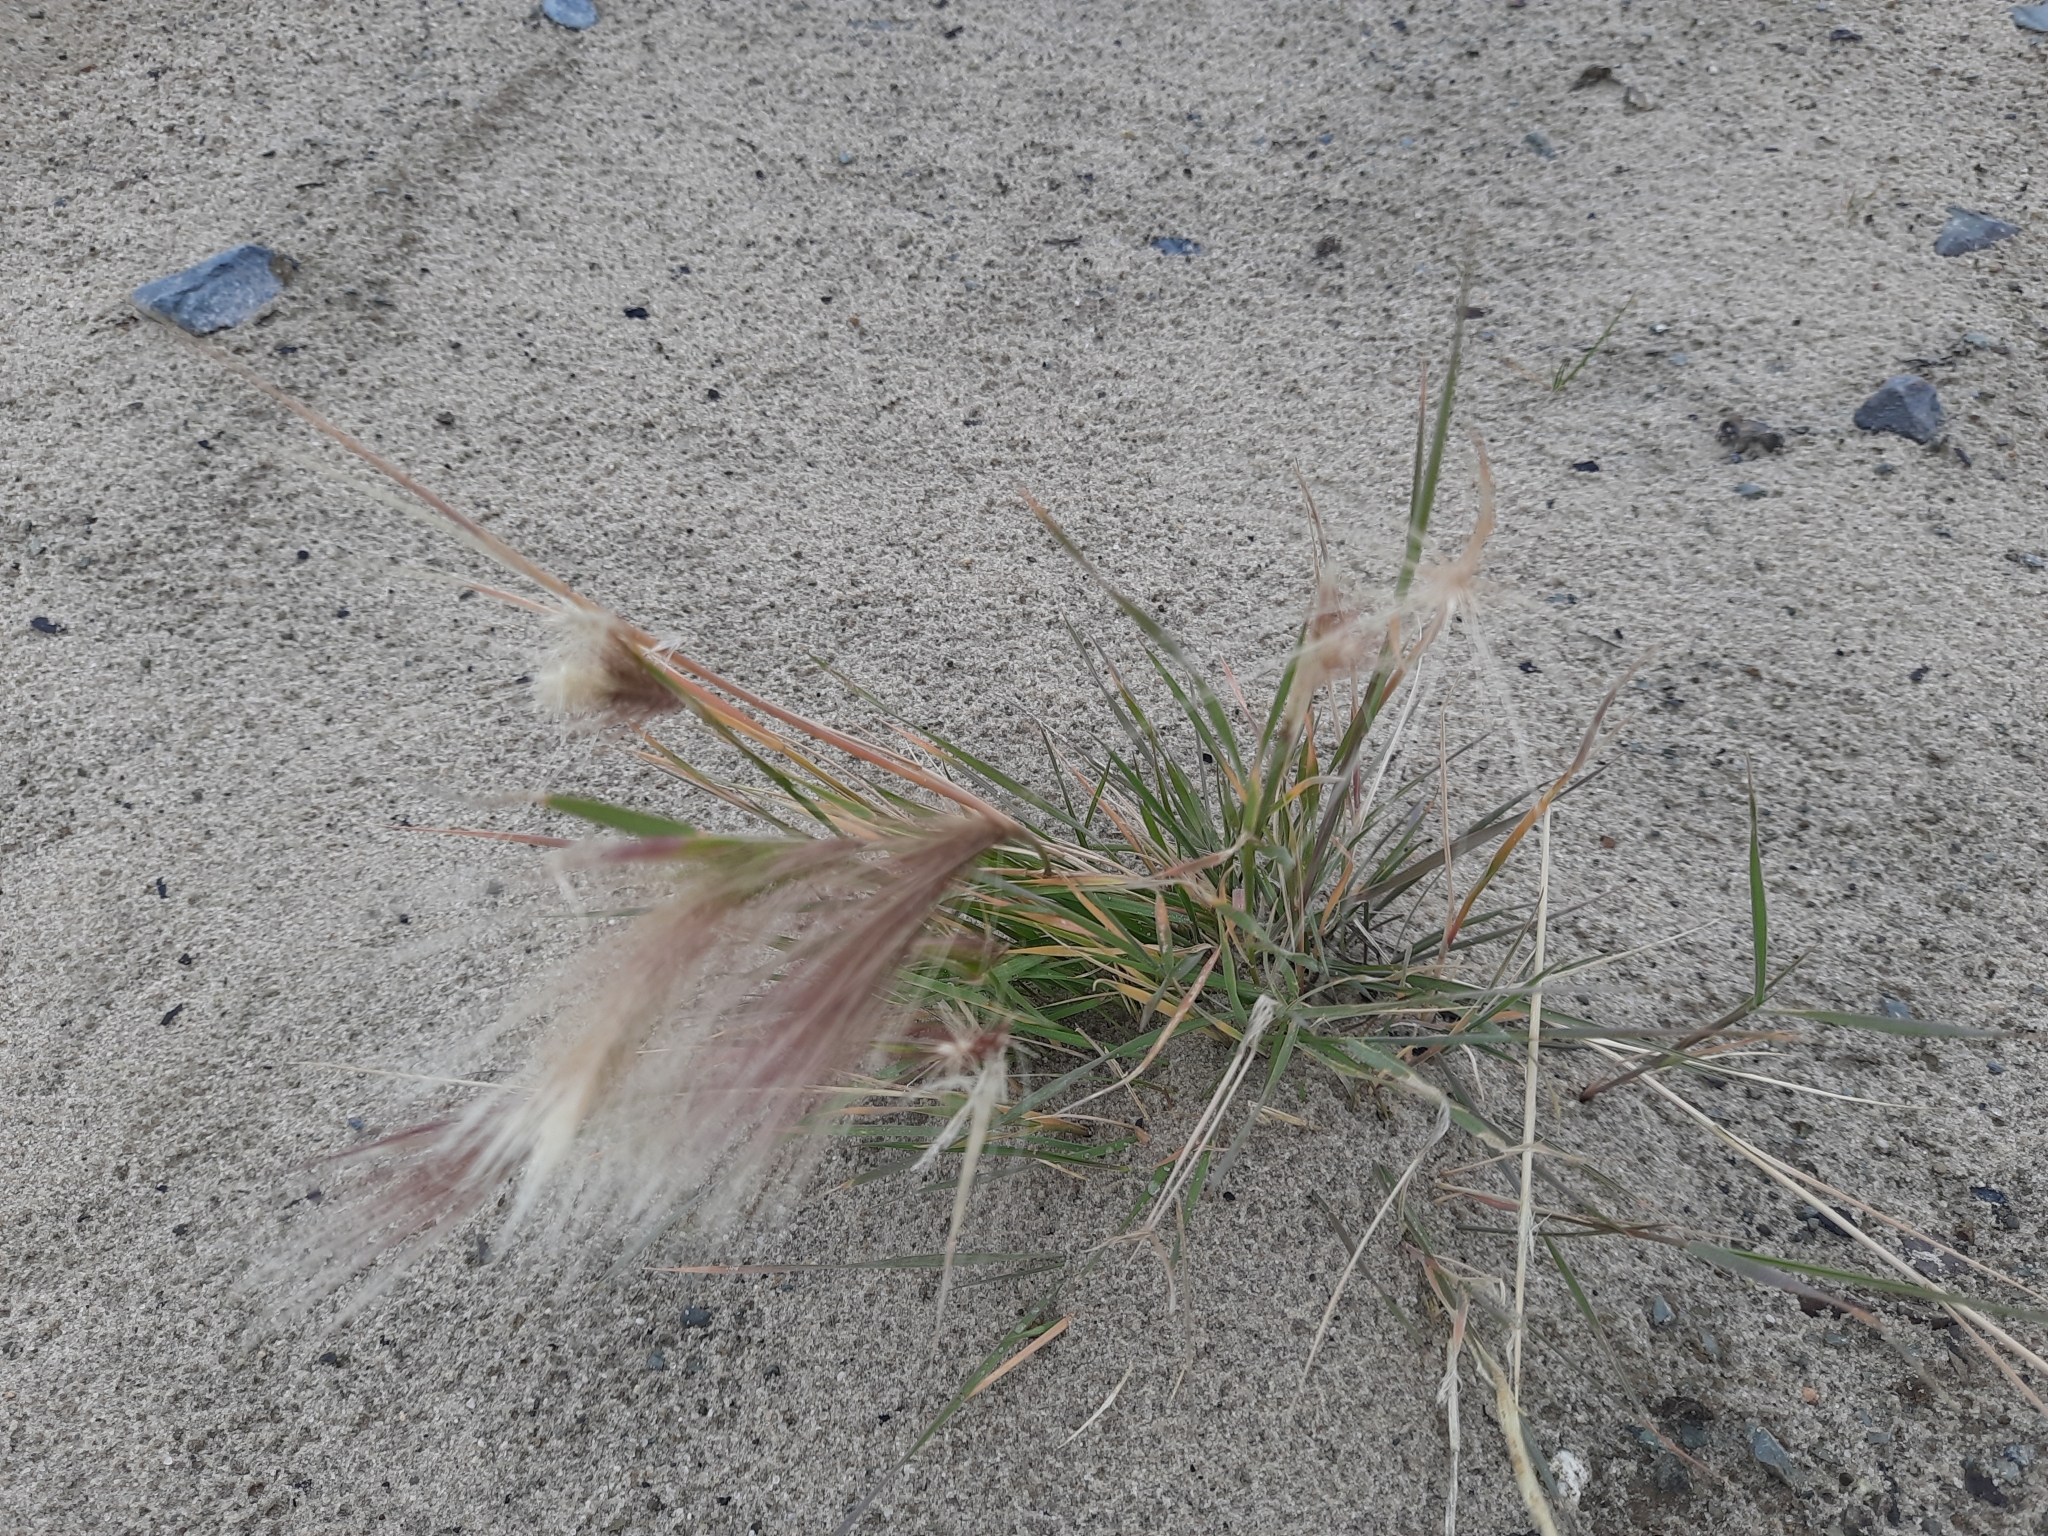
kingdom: Plantae
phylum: Tracheophyta
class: Liliopsida
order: Poales
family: Poaceae
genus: Hordeum
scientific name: Hordeum jubatum
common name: Foxtail barley
